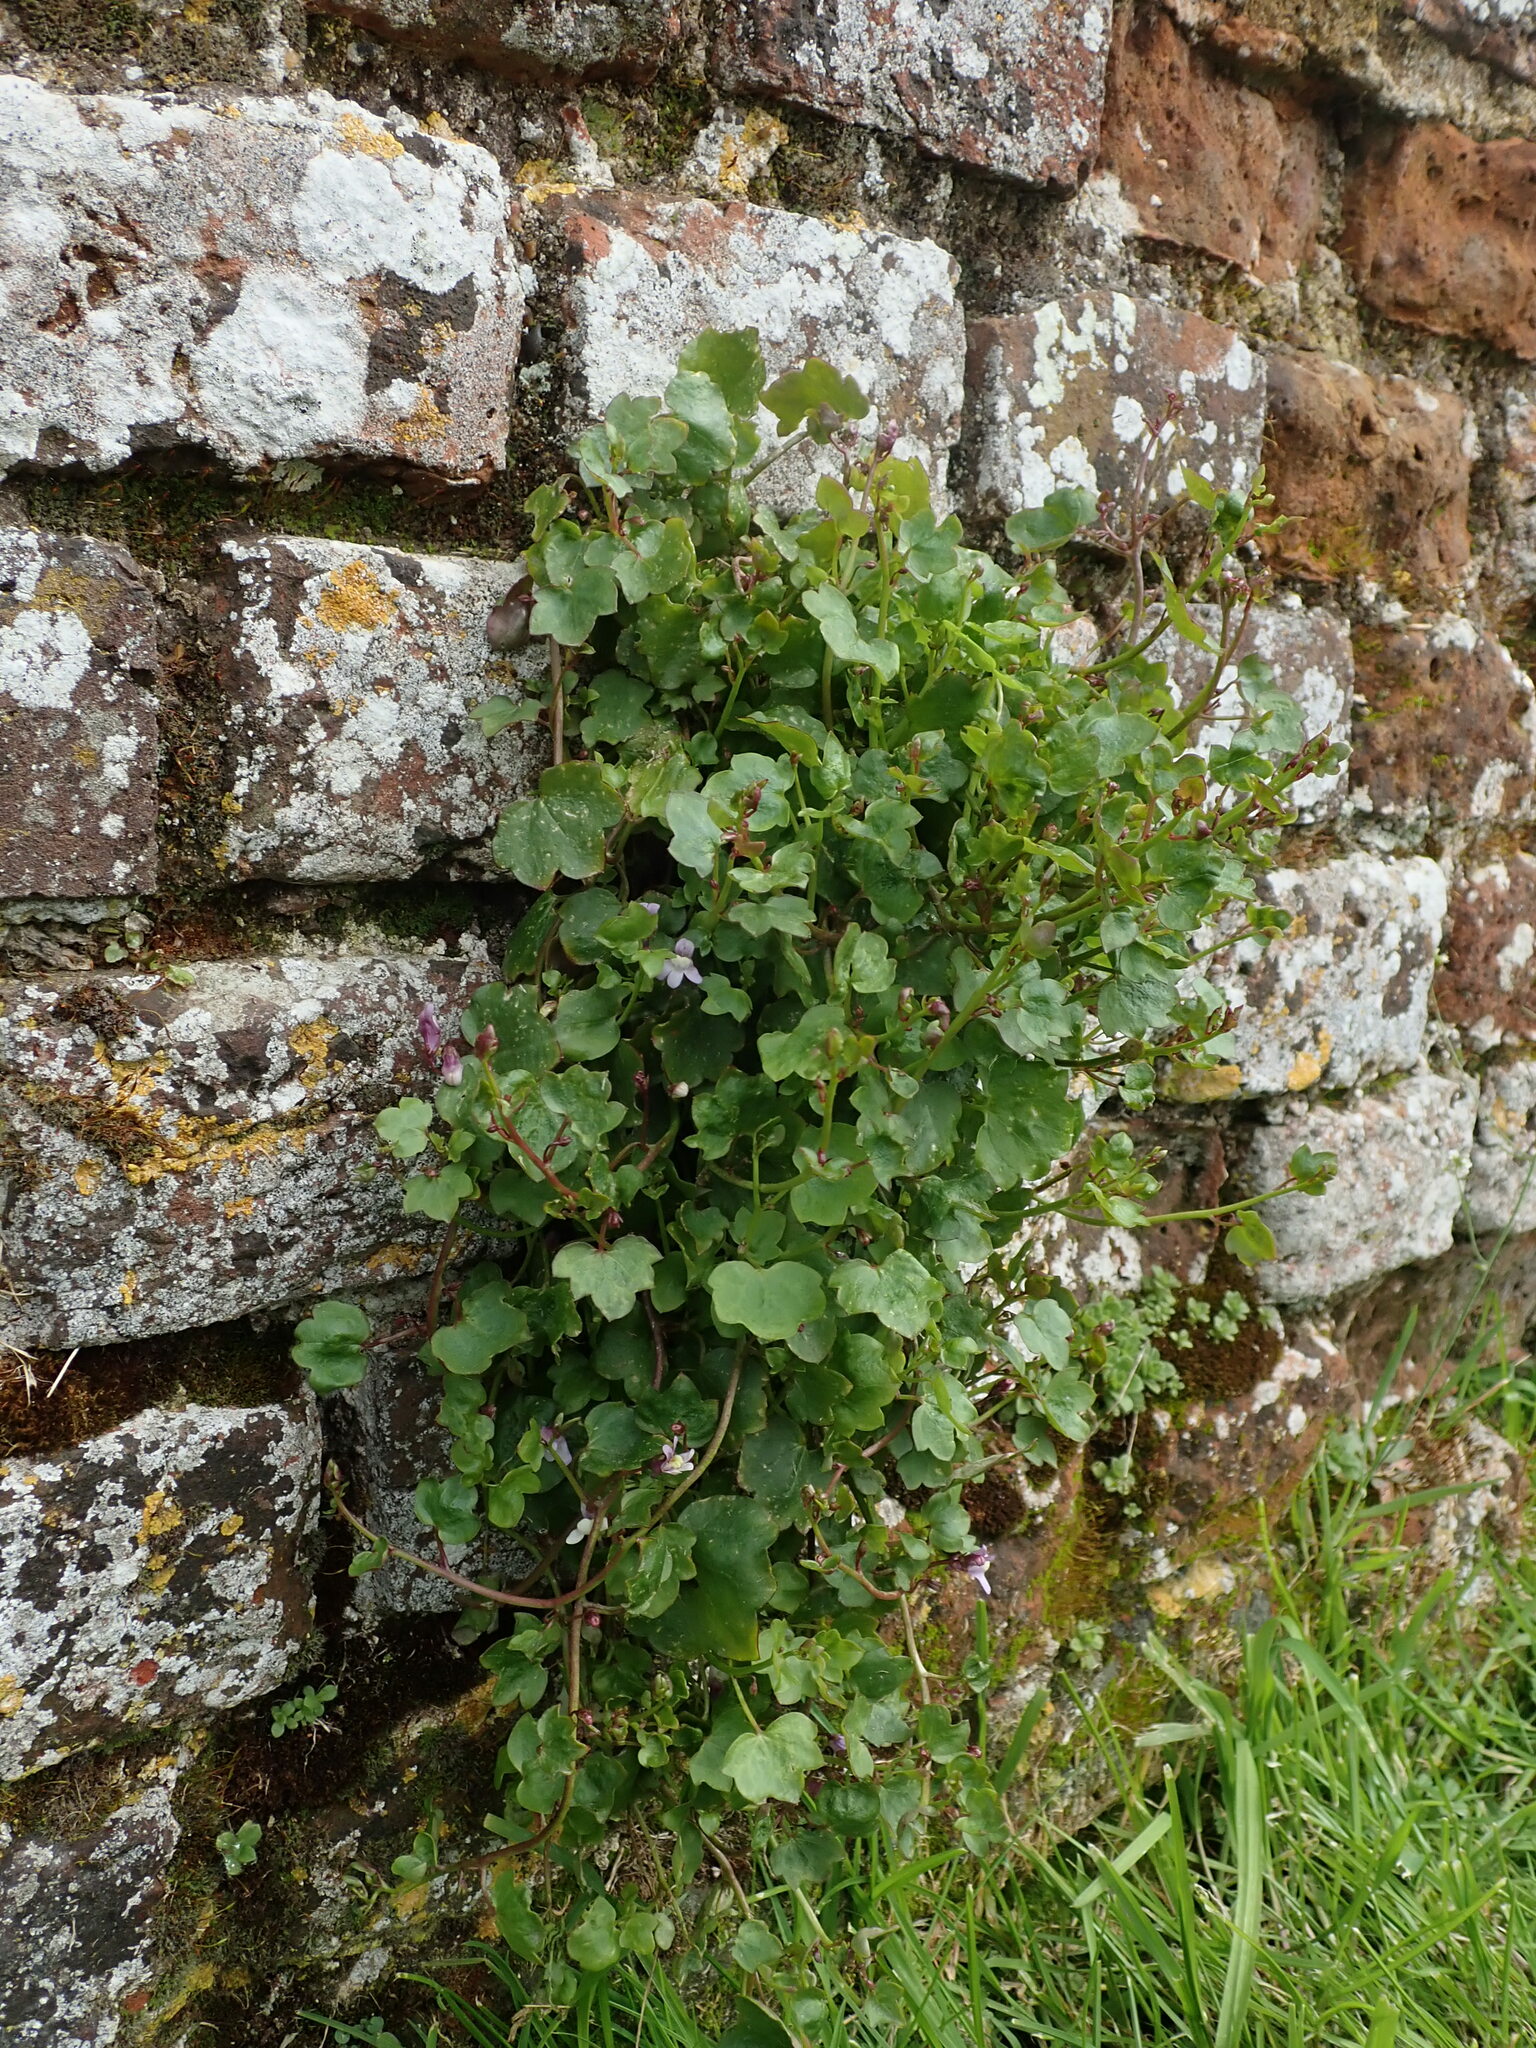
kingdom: Plantae
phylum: Tracheophyta
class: Magnoliopsida
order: Lamiales
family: Plantaginaceae
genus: Cymbalaria
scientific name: Cymbalaria muralis
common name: Ivy-leaved toadflax
